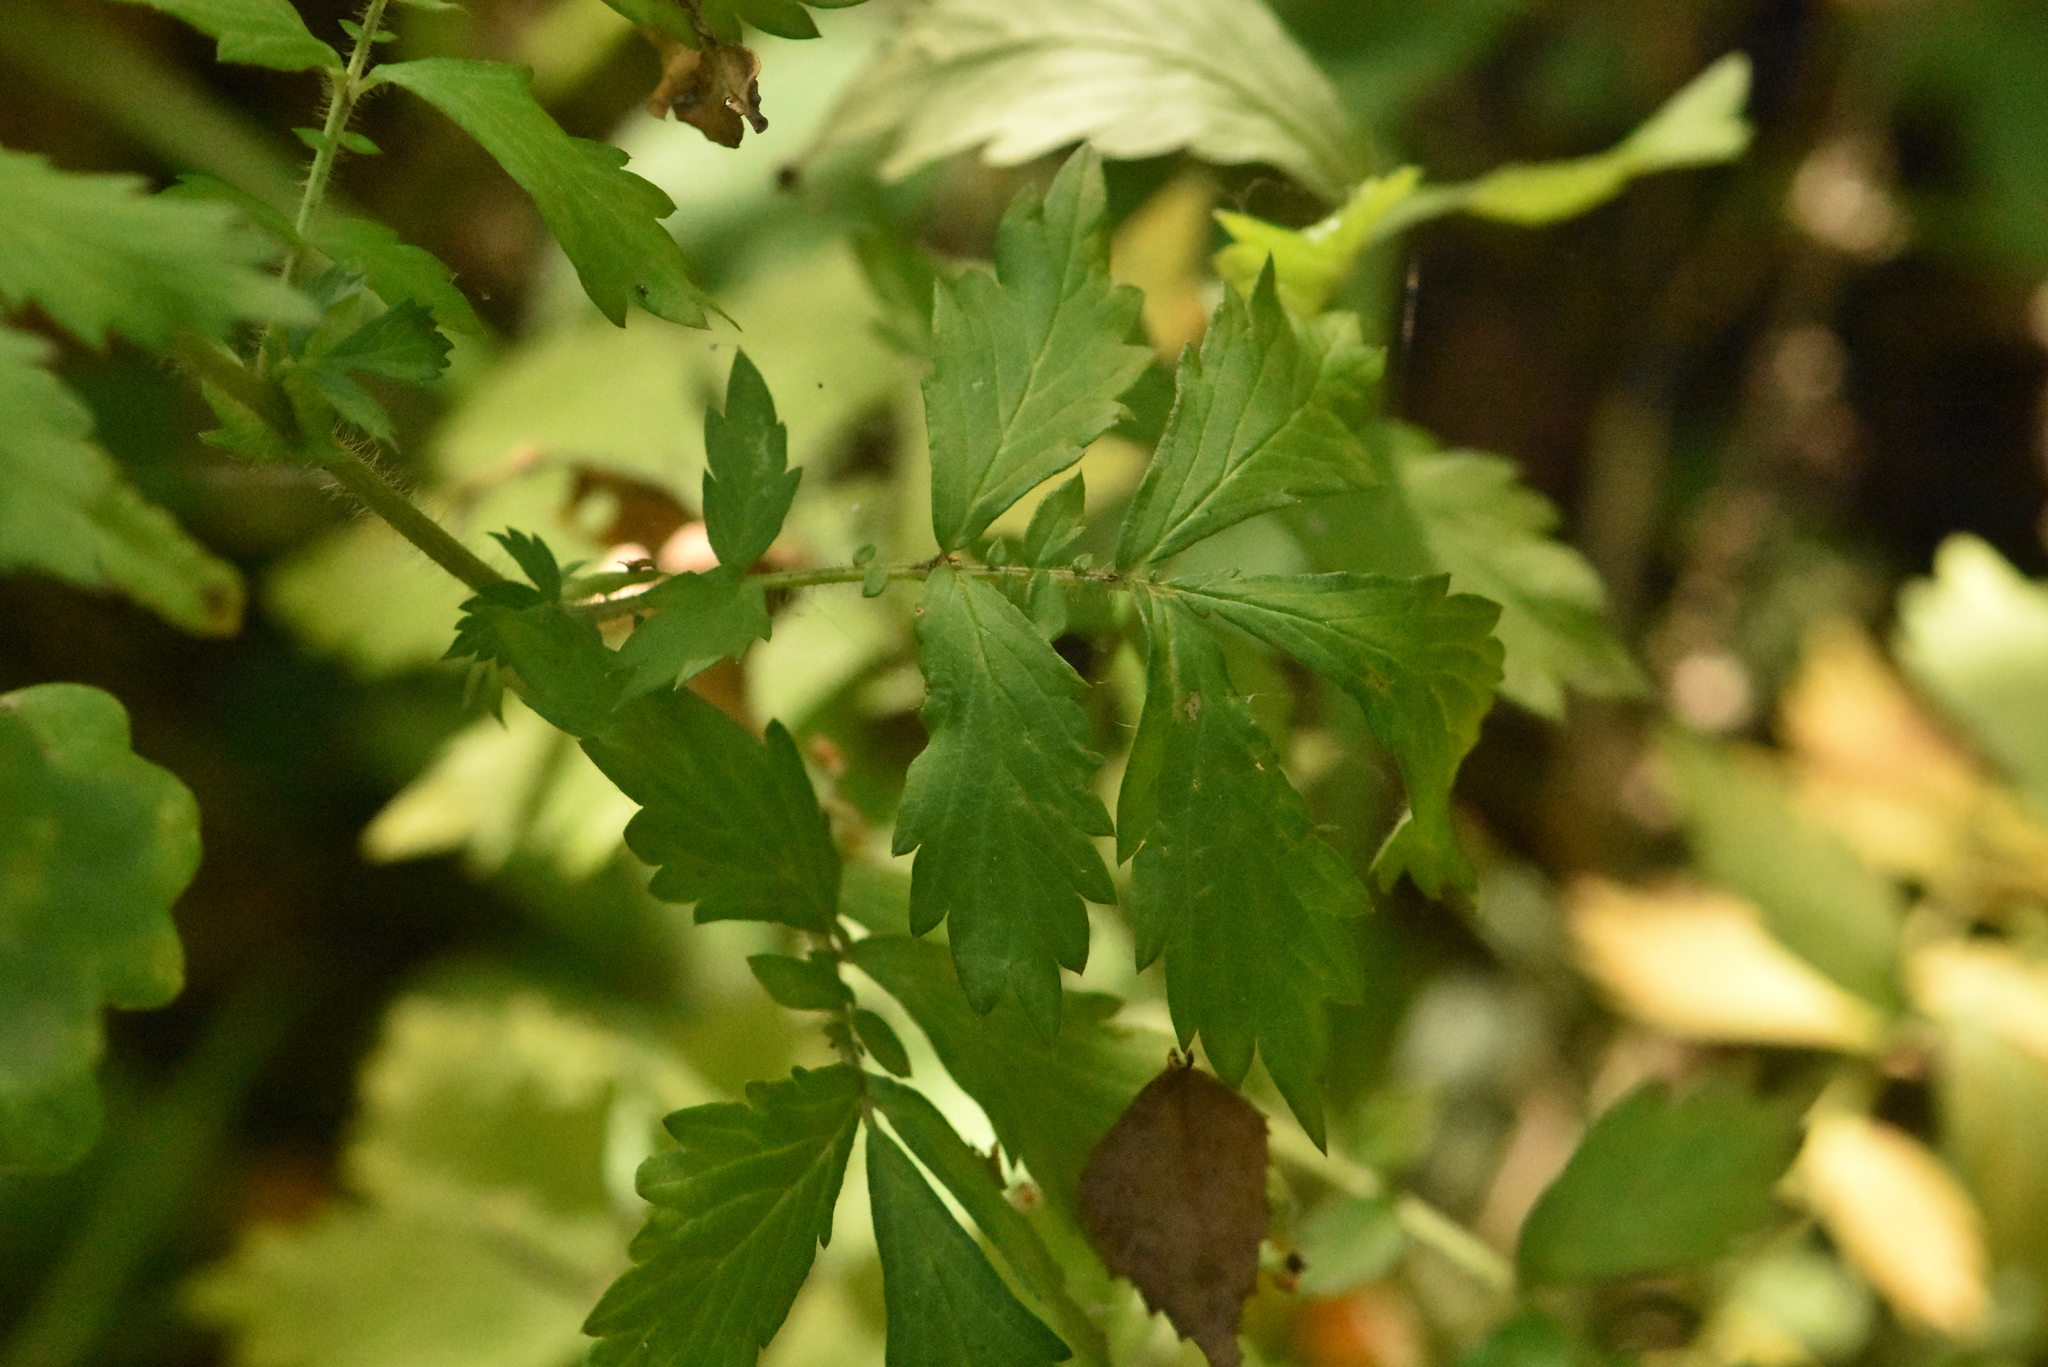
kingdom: Plantae
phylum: Tracheophyta
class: Magnoliopsida
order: Rosales
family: Rosaceae
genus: Agrimonia
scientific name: Agrimonia pilosa
